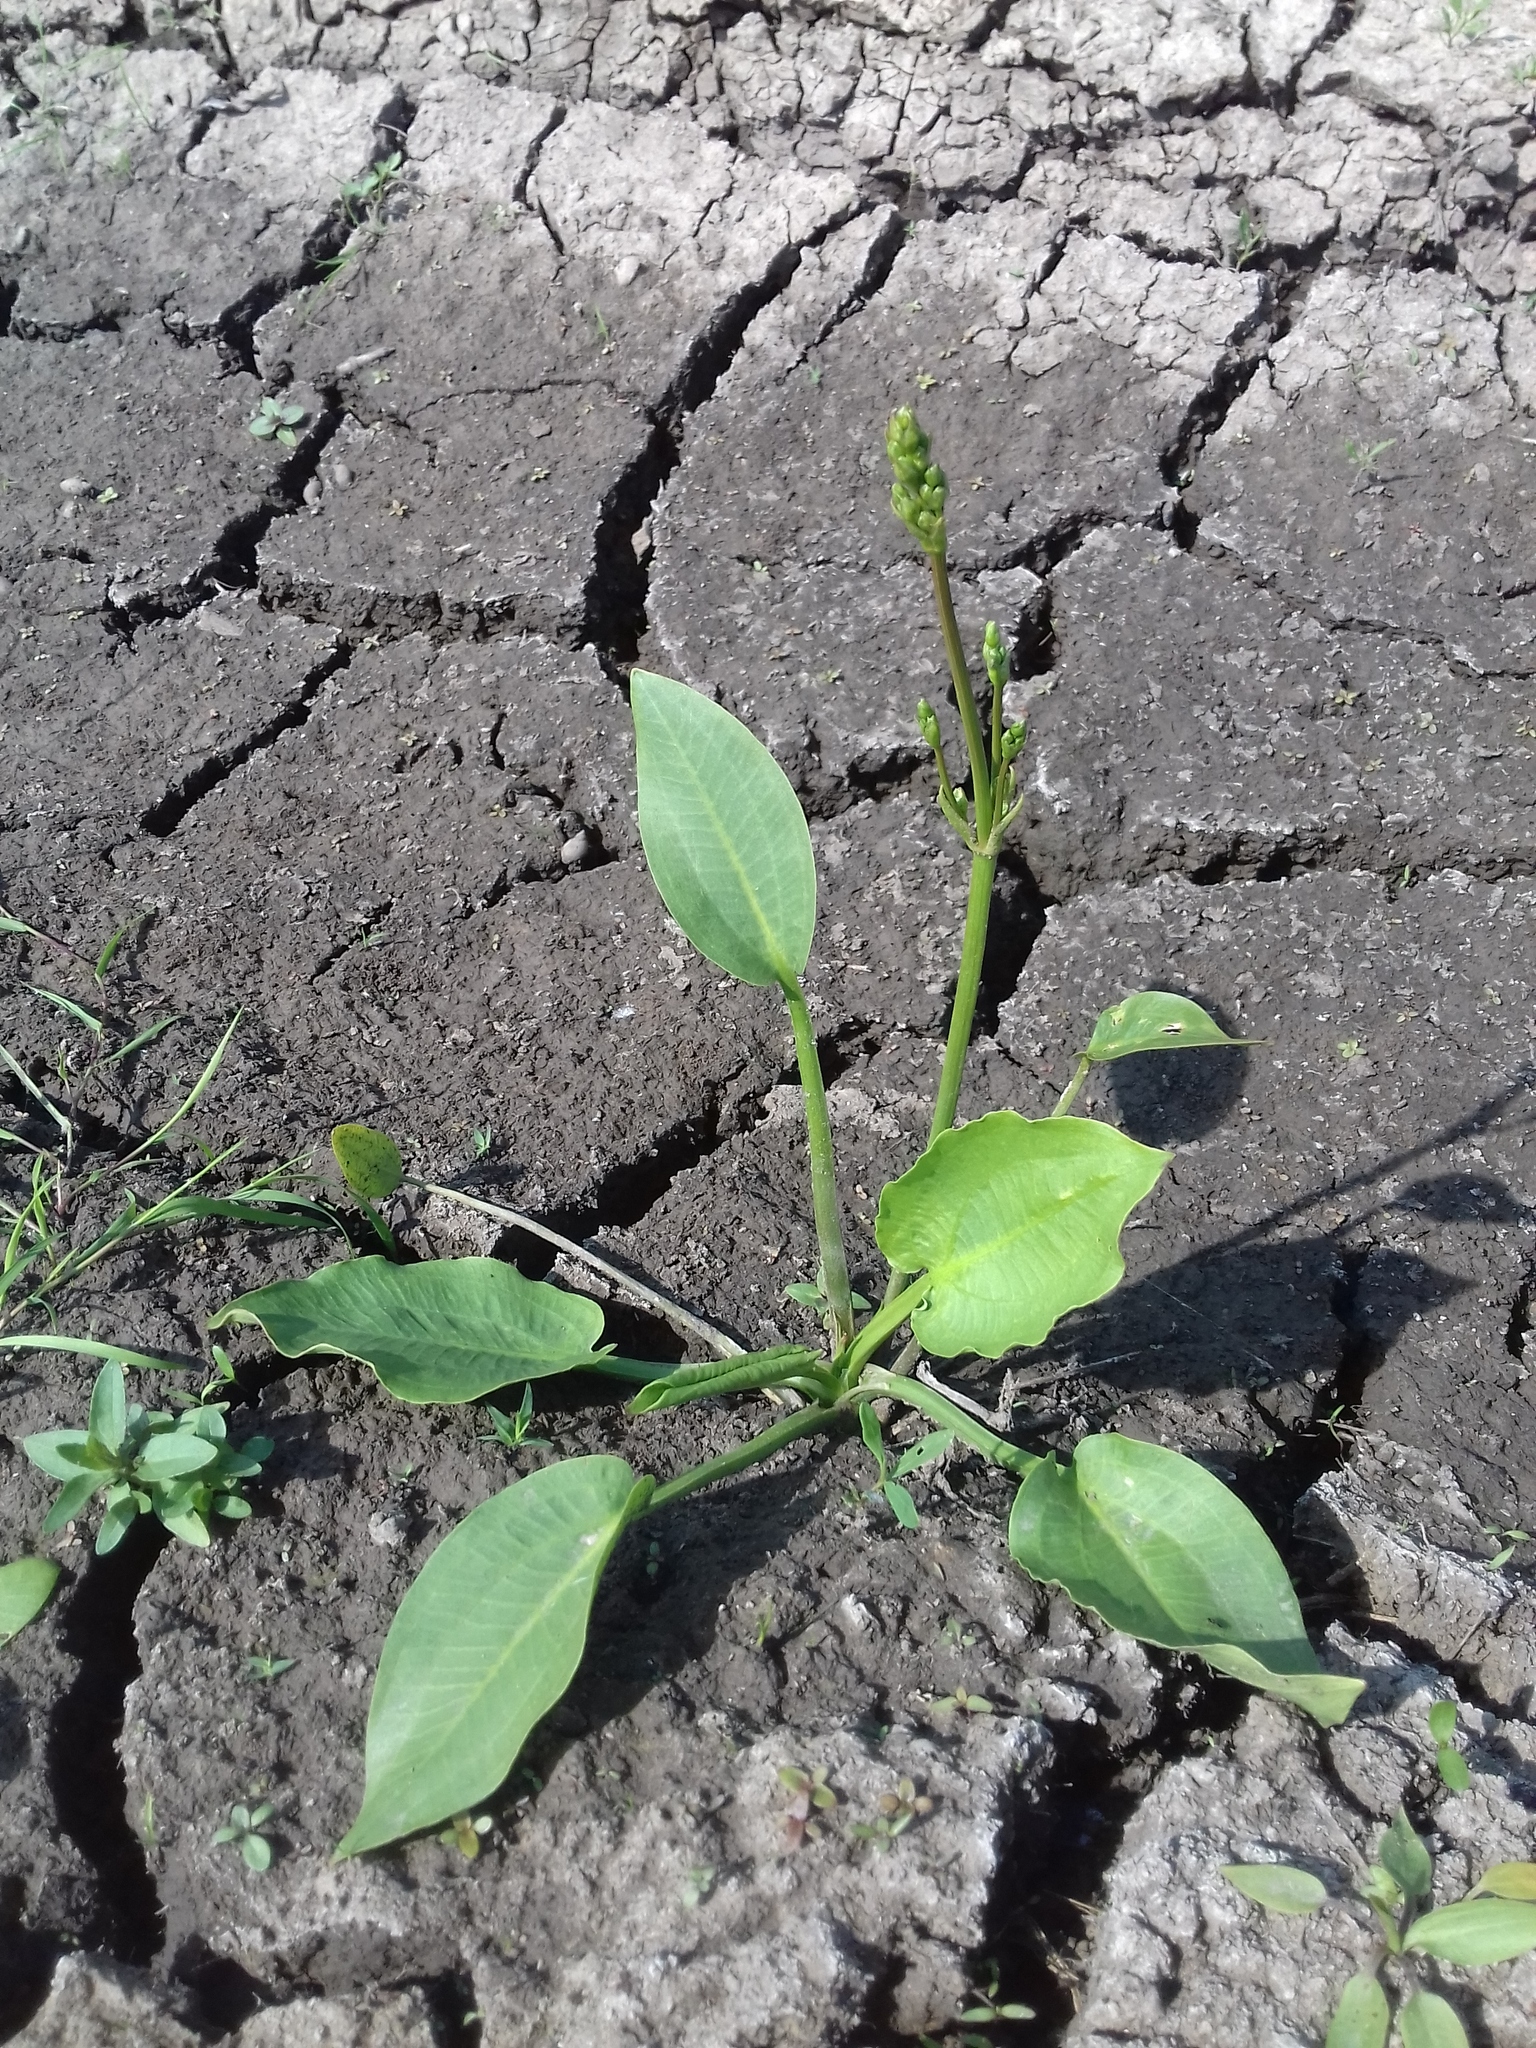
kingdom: Plantae
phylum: Tracheophyta
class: Liliopsida
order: Alismatales
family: Alismataceae
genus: Alisma
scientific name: Alisma plantago-aquatica
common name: Water-plantain
